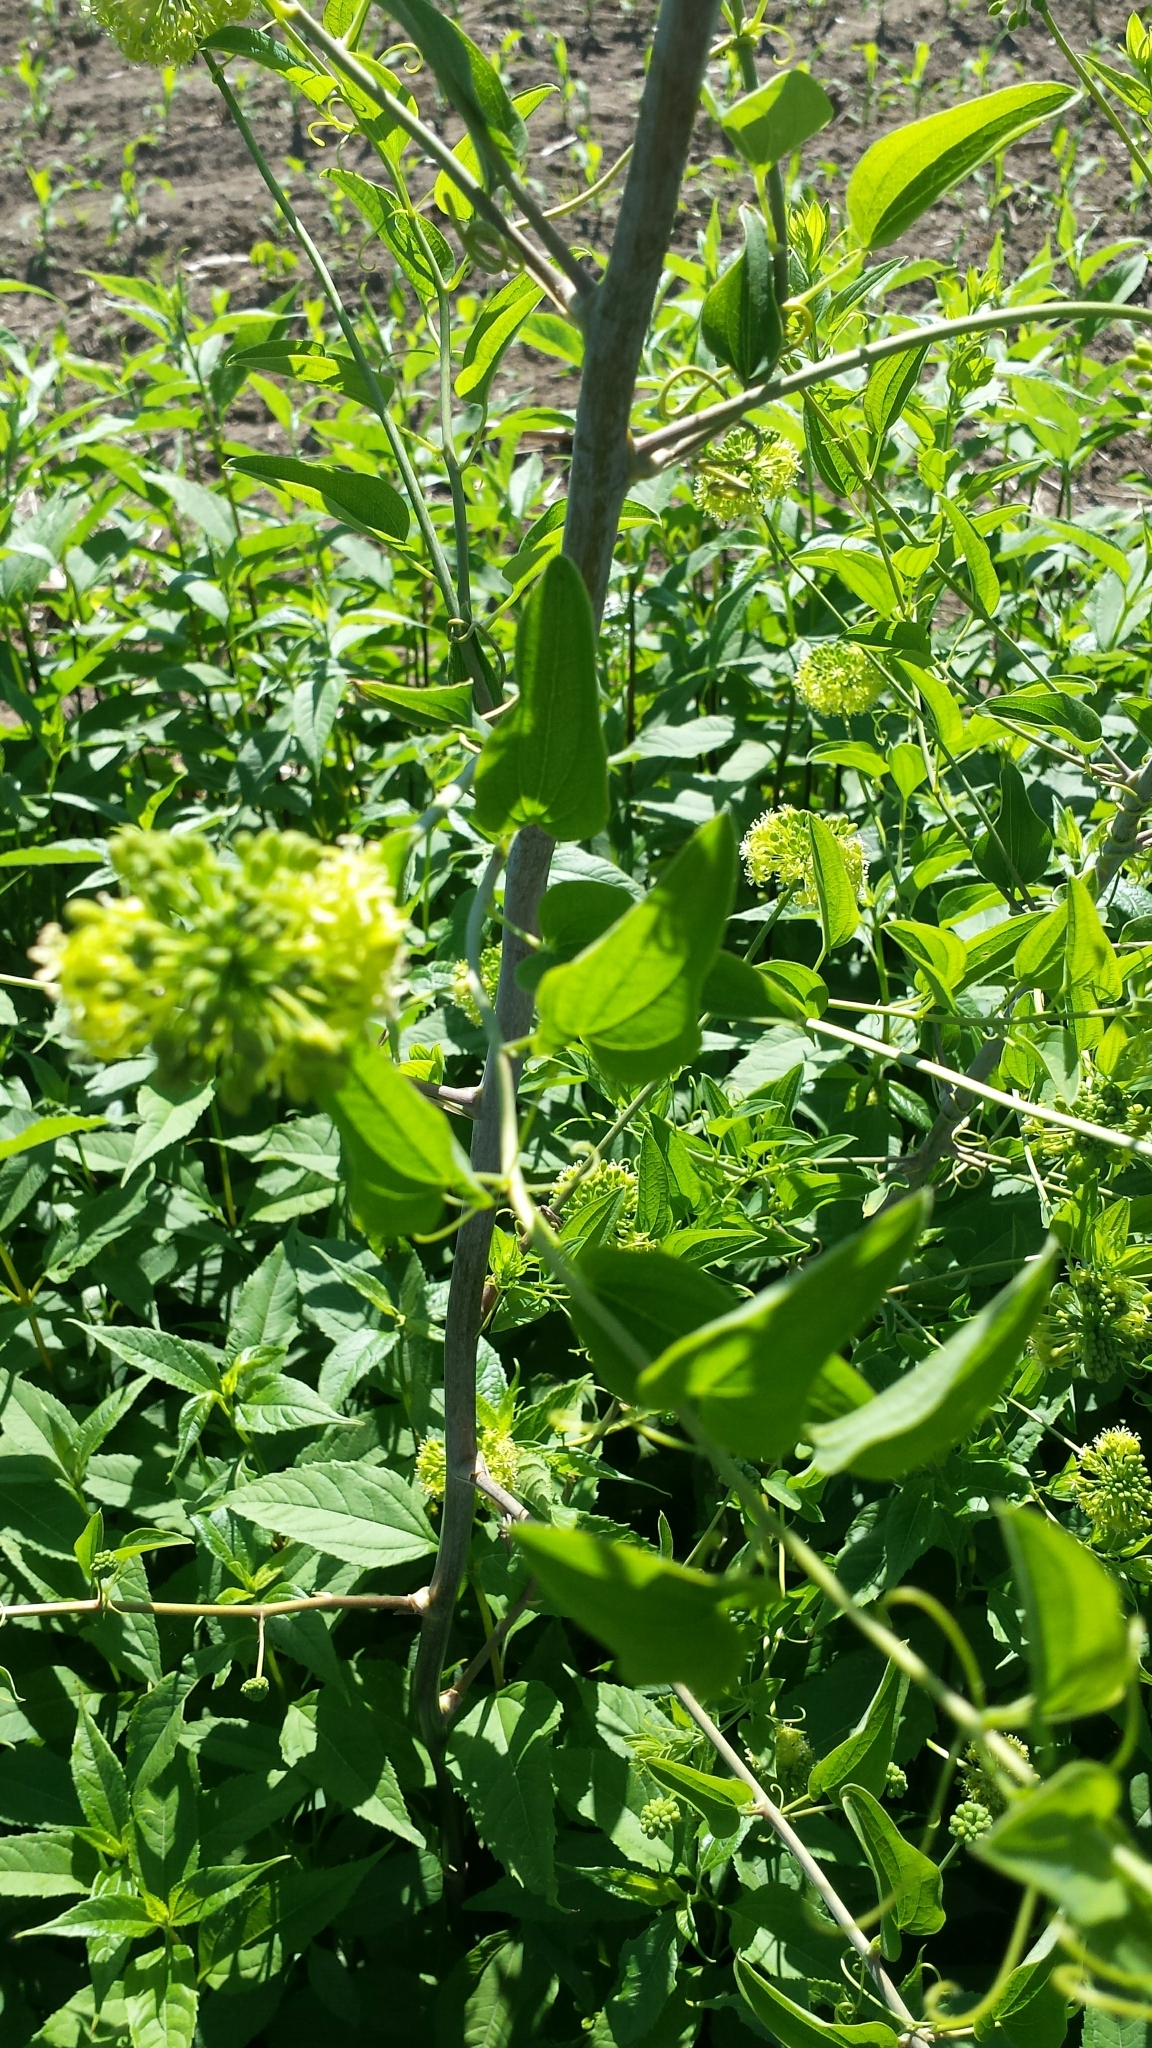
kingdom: Plantae
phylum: Tracheophyta
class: Liliopsida
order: Liliales
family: Smilacaceae
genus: Smilax
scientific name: Smilax herbacea
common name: Jacob's-ladder
